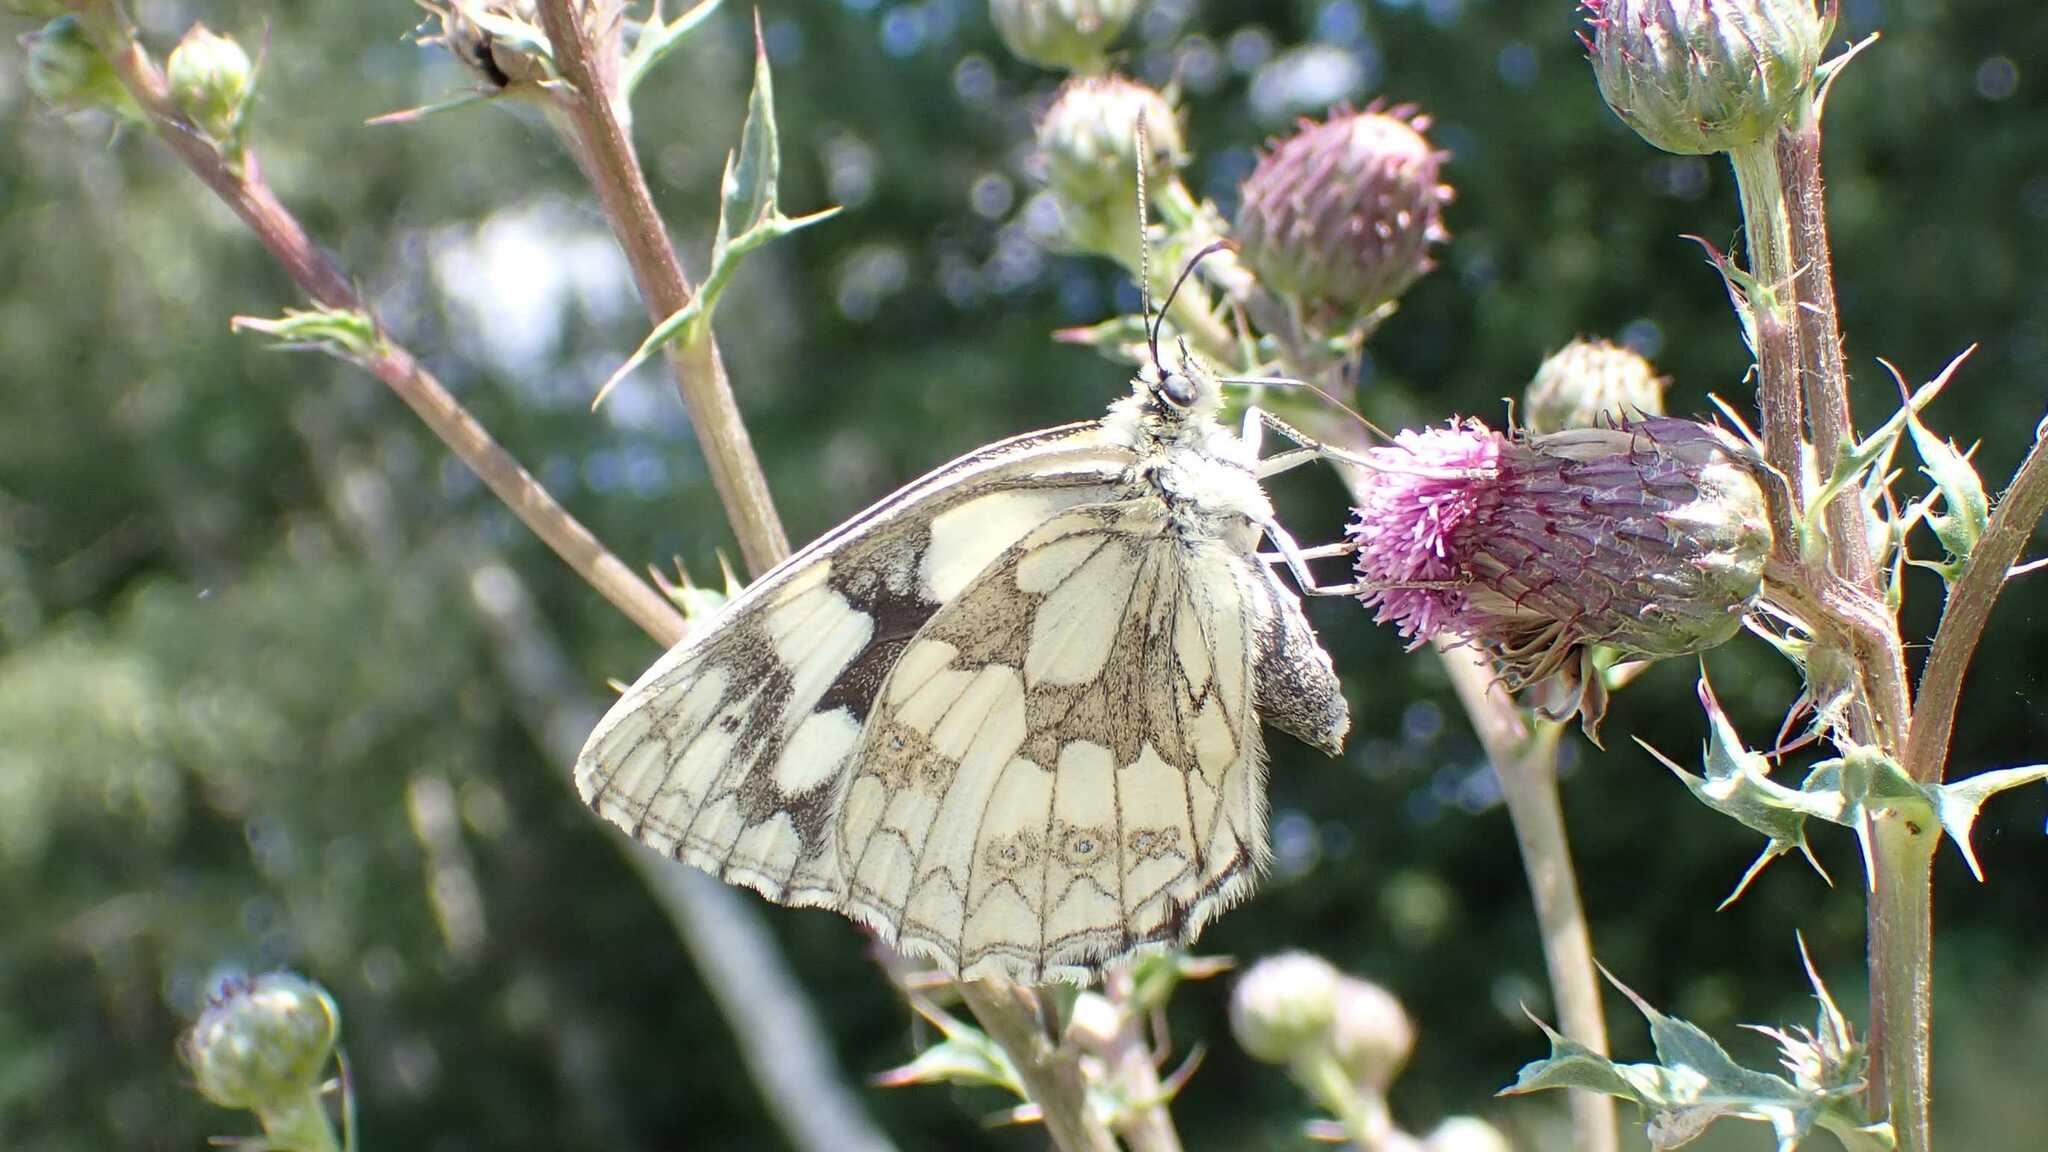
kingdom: Animalia
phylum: Arthropoda
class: Insecta
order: Lepidoptera
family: Nymphalidae
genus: Melanargia
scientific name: Melanargia galathea
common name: Marbled white
